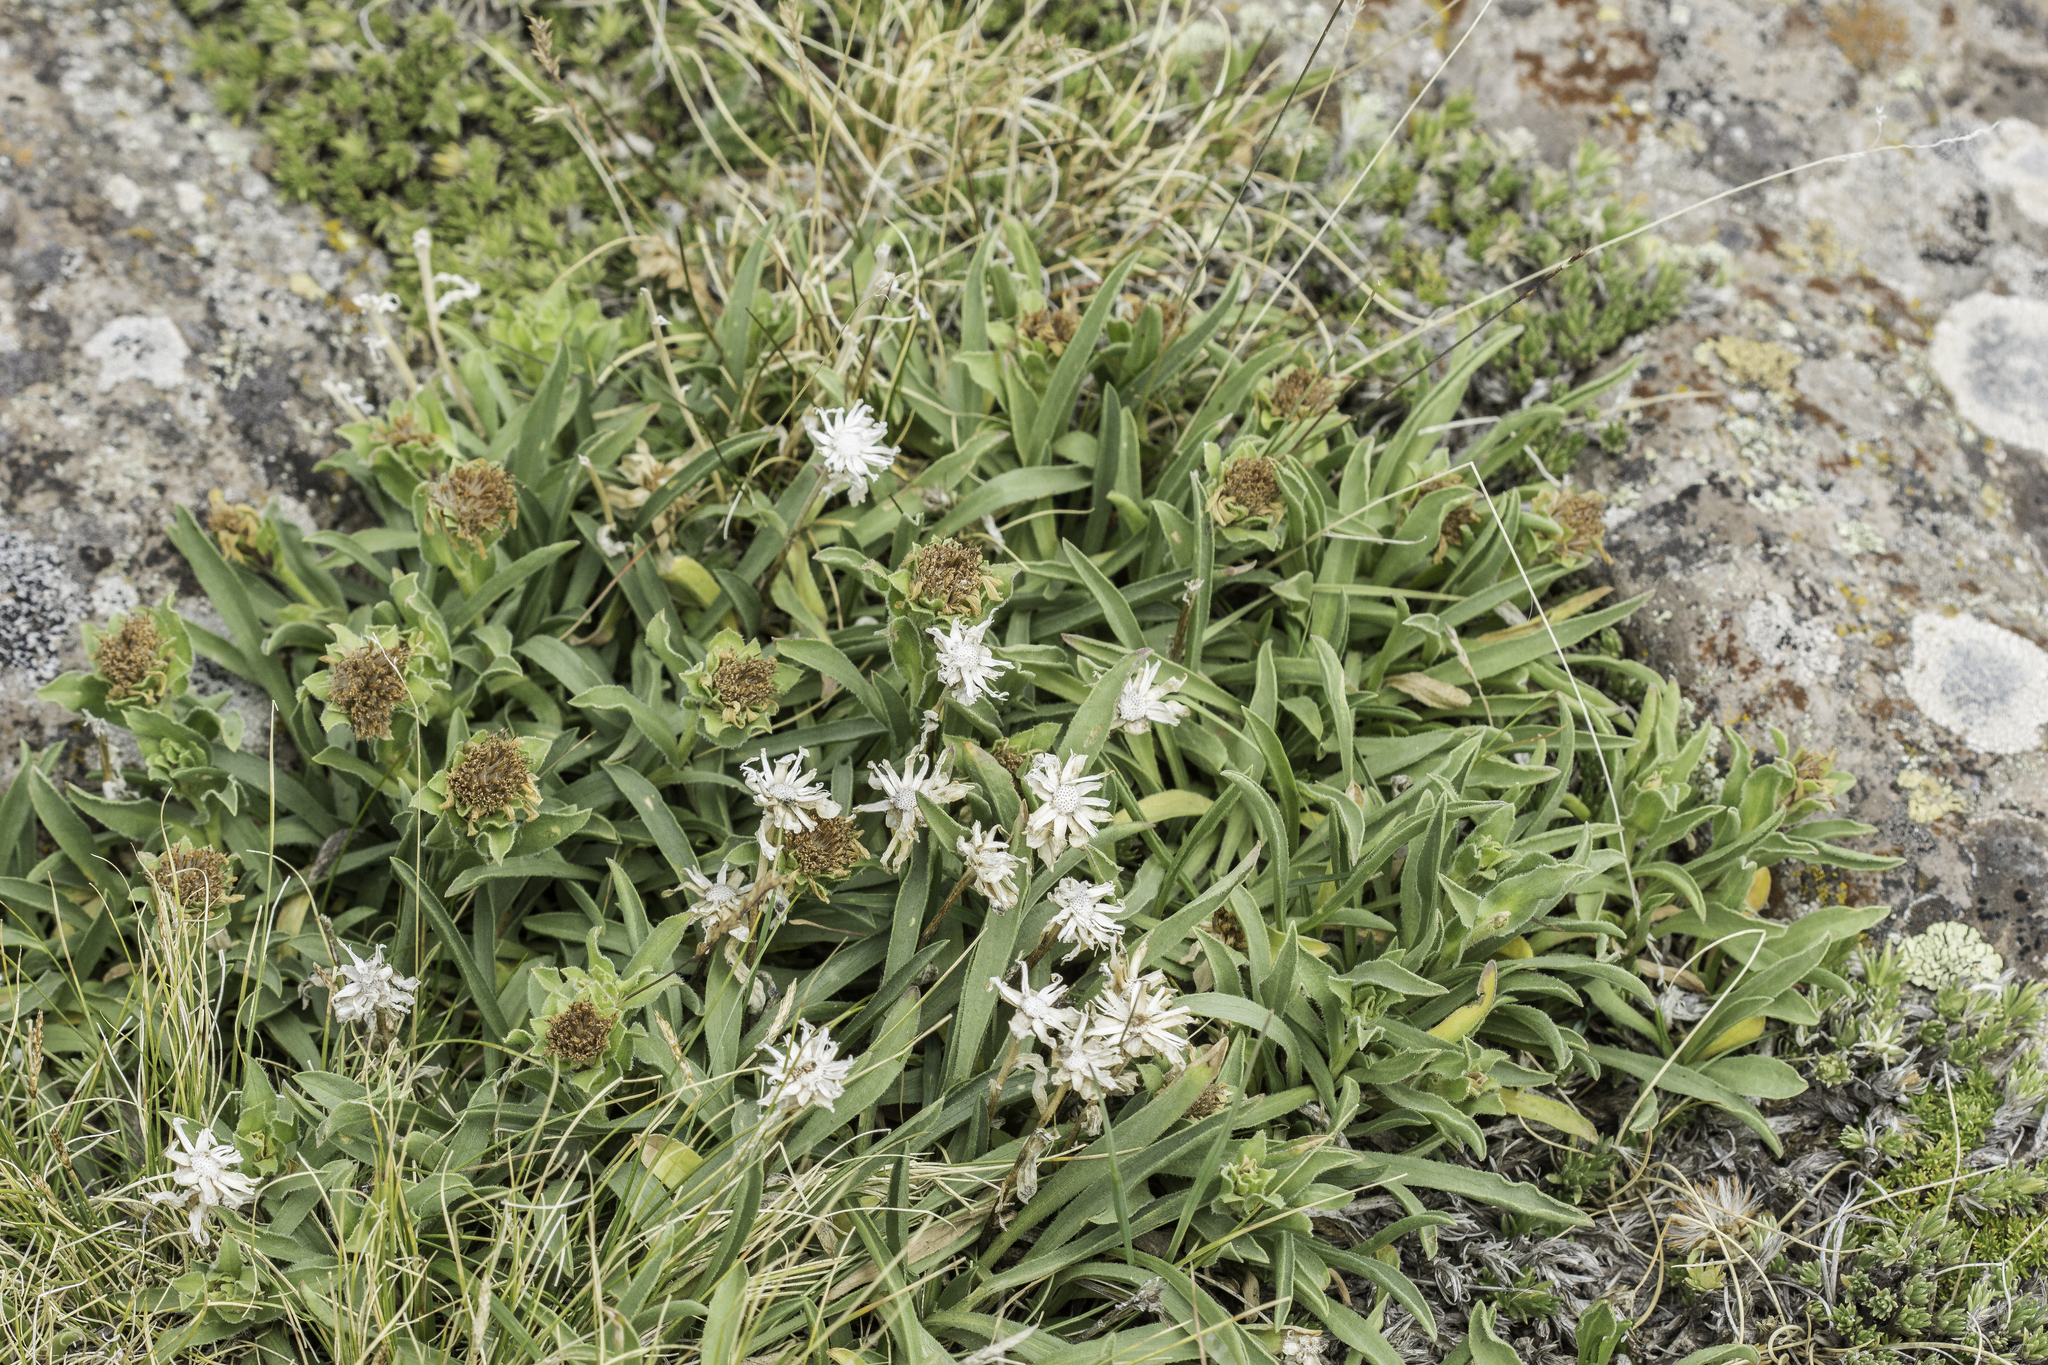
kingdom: Plantae
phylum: Tracheophyta
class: Magnoliopsida
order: Asterales
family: Asteraceae
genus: Tonestus
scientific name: Tonestus pygmaeus
